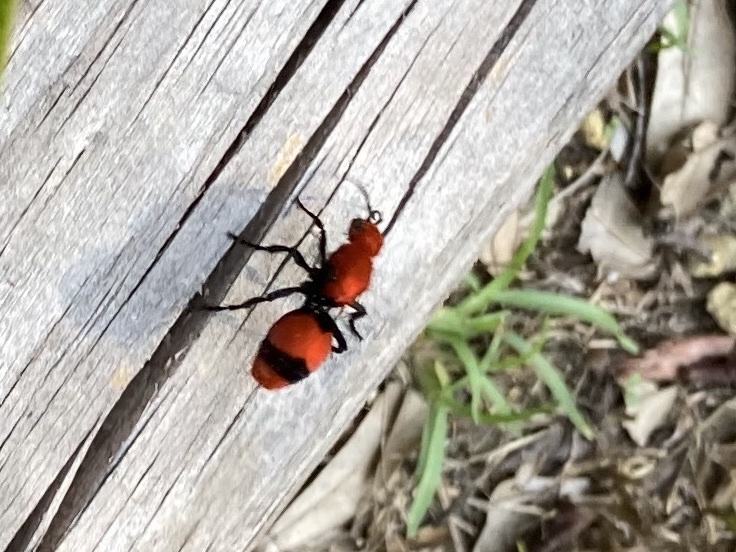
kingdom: Animalia
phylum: Arthropoda
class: Insecta
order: Hymenoptera
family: Mutillidae
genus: Dasymutilla
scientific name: Dasymutilla occidentalis
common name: Common eastern velvet ant
